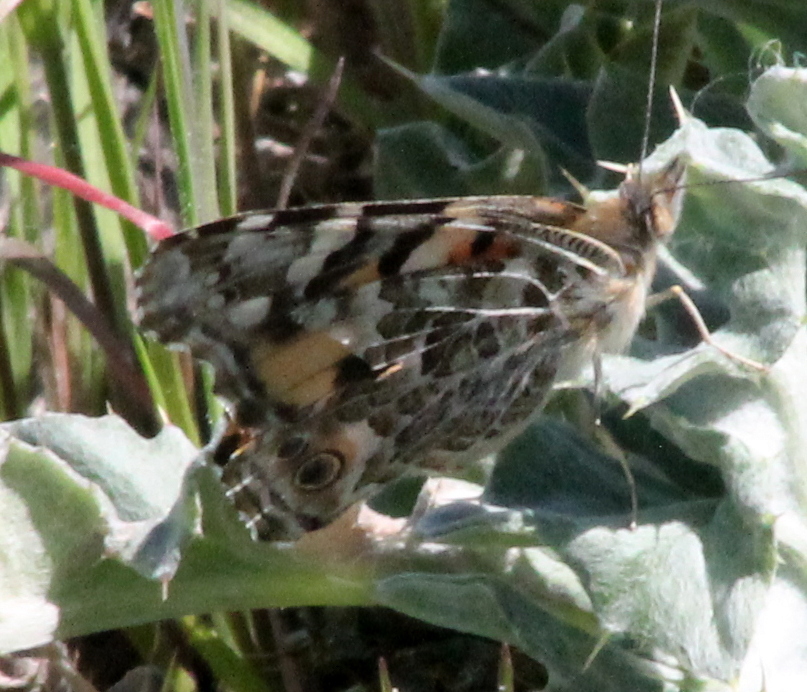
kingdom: Animalia
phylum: Arthropoda
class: Insecta
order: Lepidoptera
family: Nymphalidae
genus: Vanessa
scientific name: Vanessa cardui
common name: Painted lady
